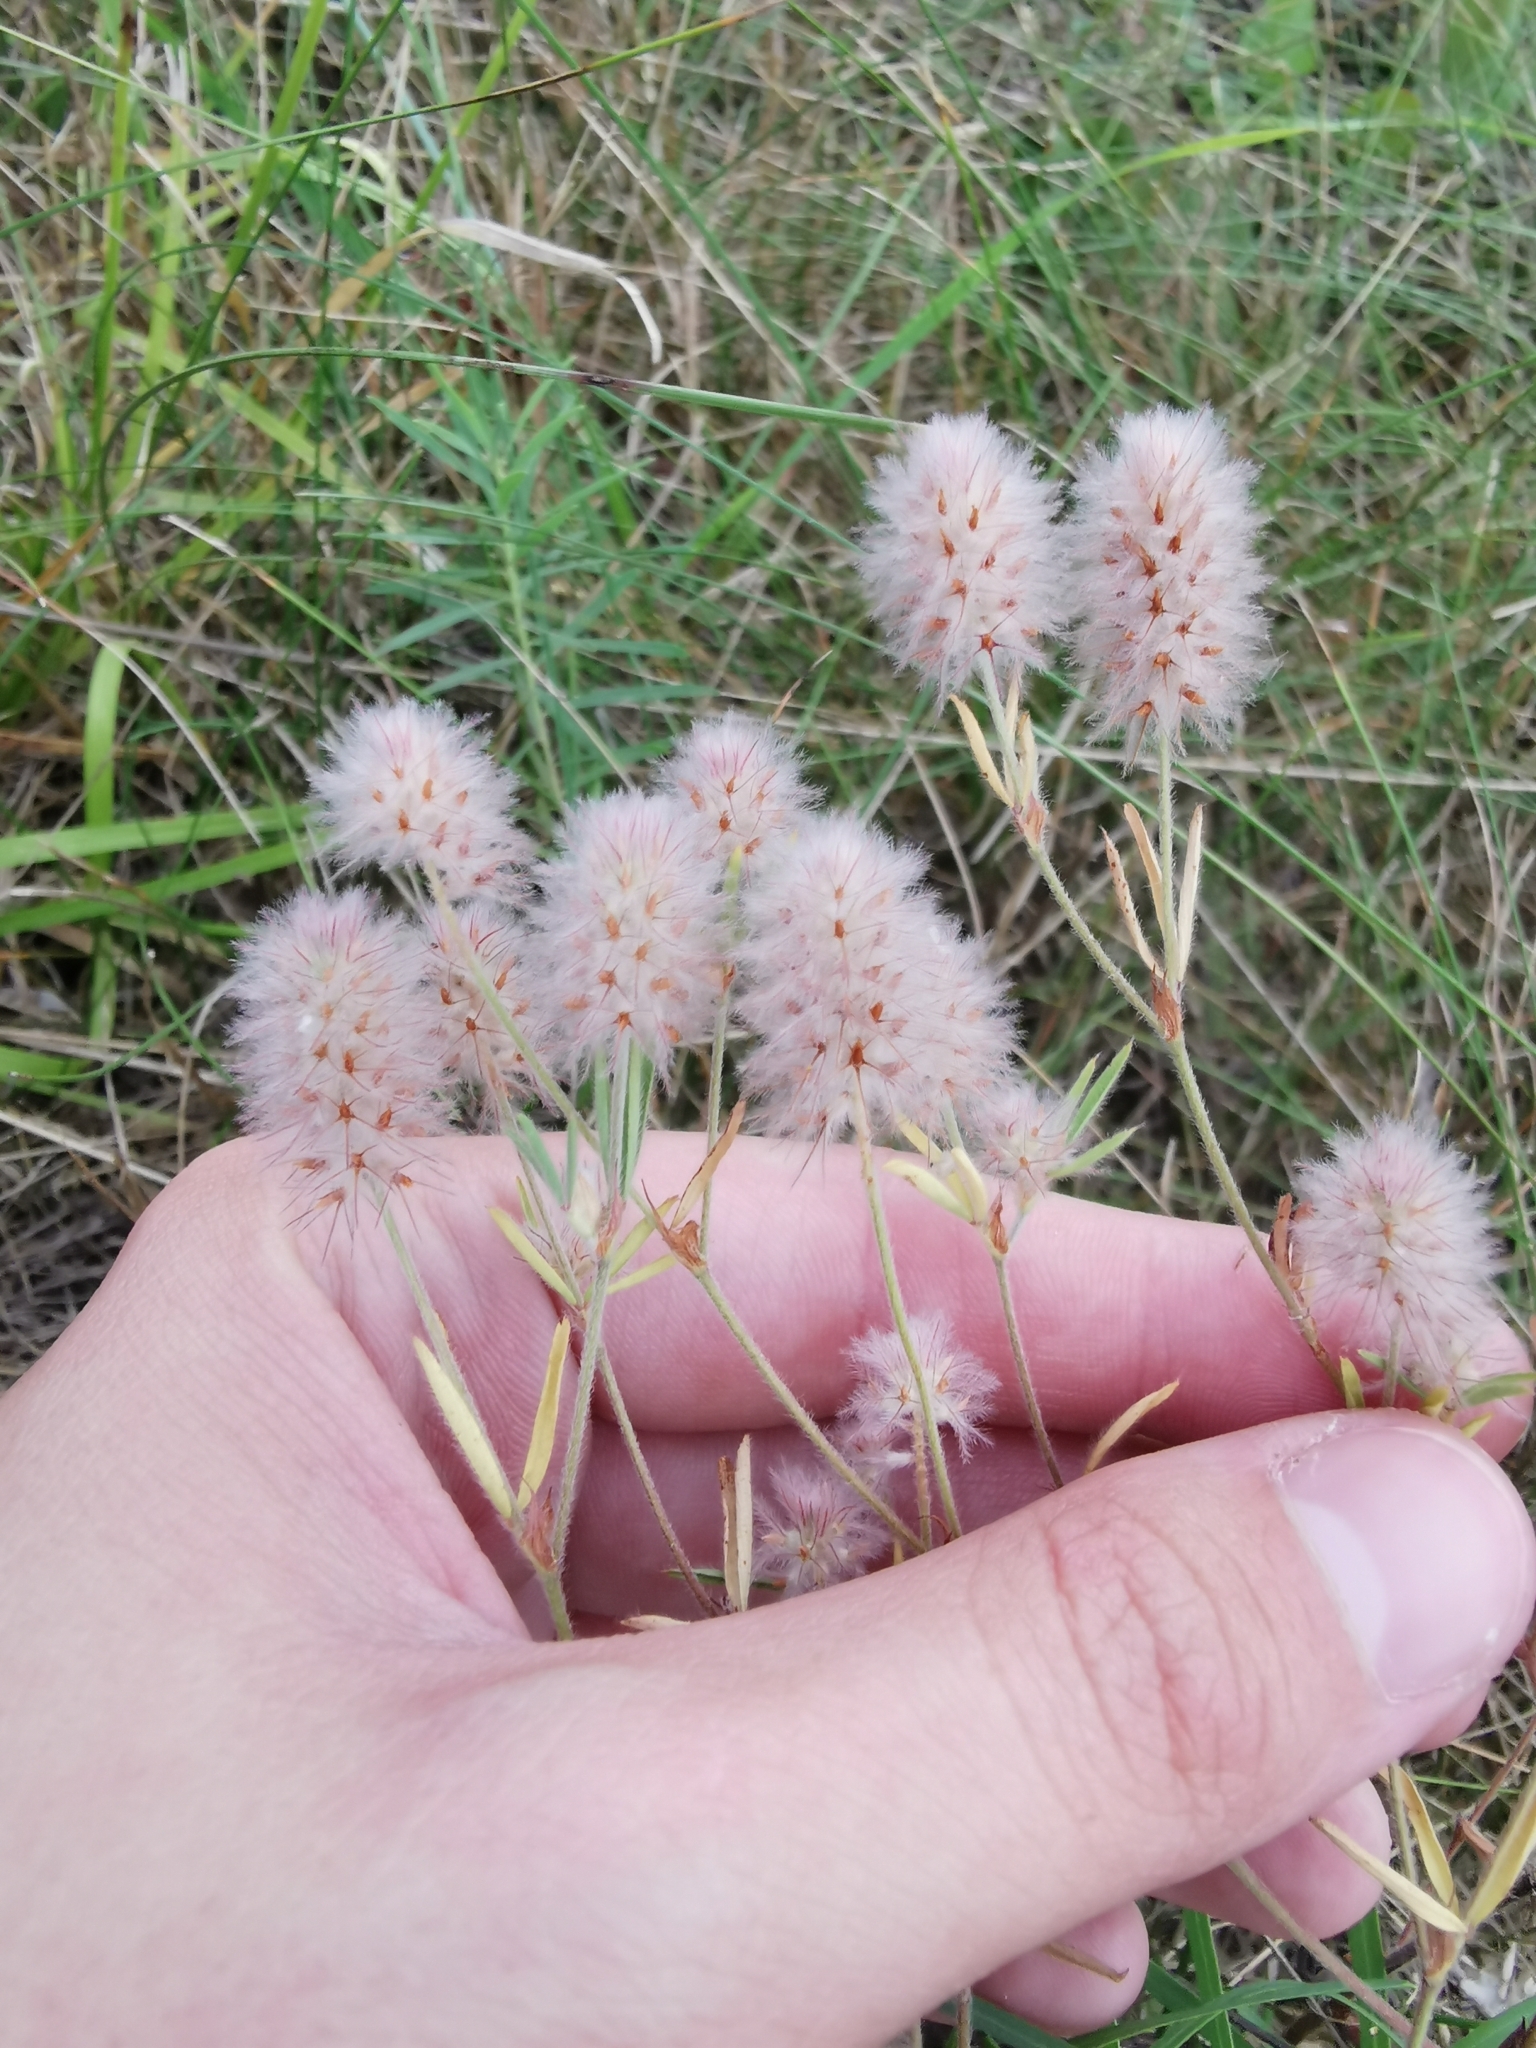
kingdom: Plantae
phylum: Tracheophyta
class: Magnoliopsida
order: Fabales
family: Fabaceae
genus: Trifolium
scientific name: Trifolium arvense
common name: Hare's-foot clover
